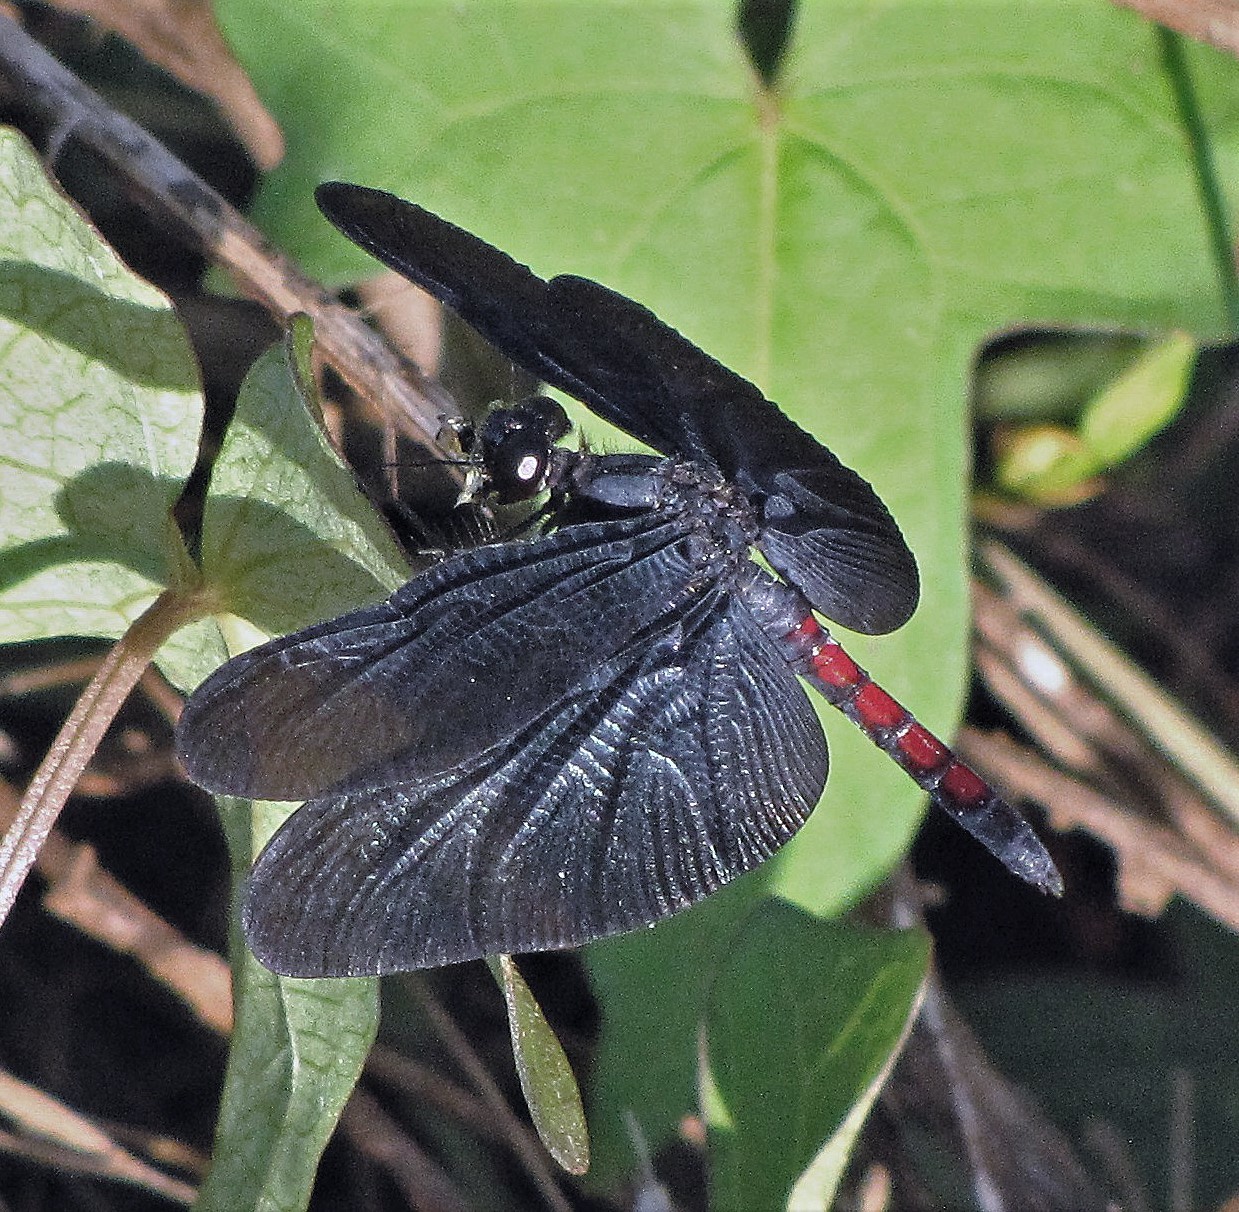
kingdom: Animalia
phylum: Arthropoda
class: Insecta
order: Odonata
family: Libellulidae
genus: Diastatops
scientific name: Diastatops obscura
